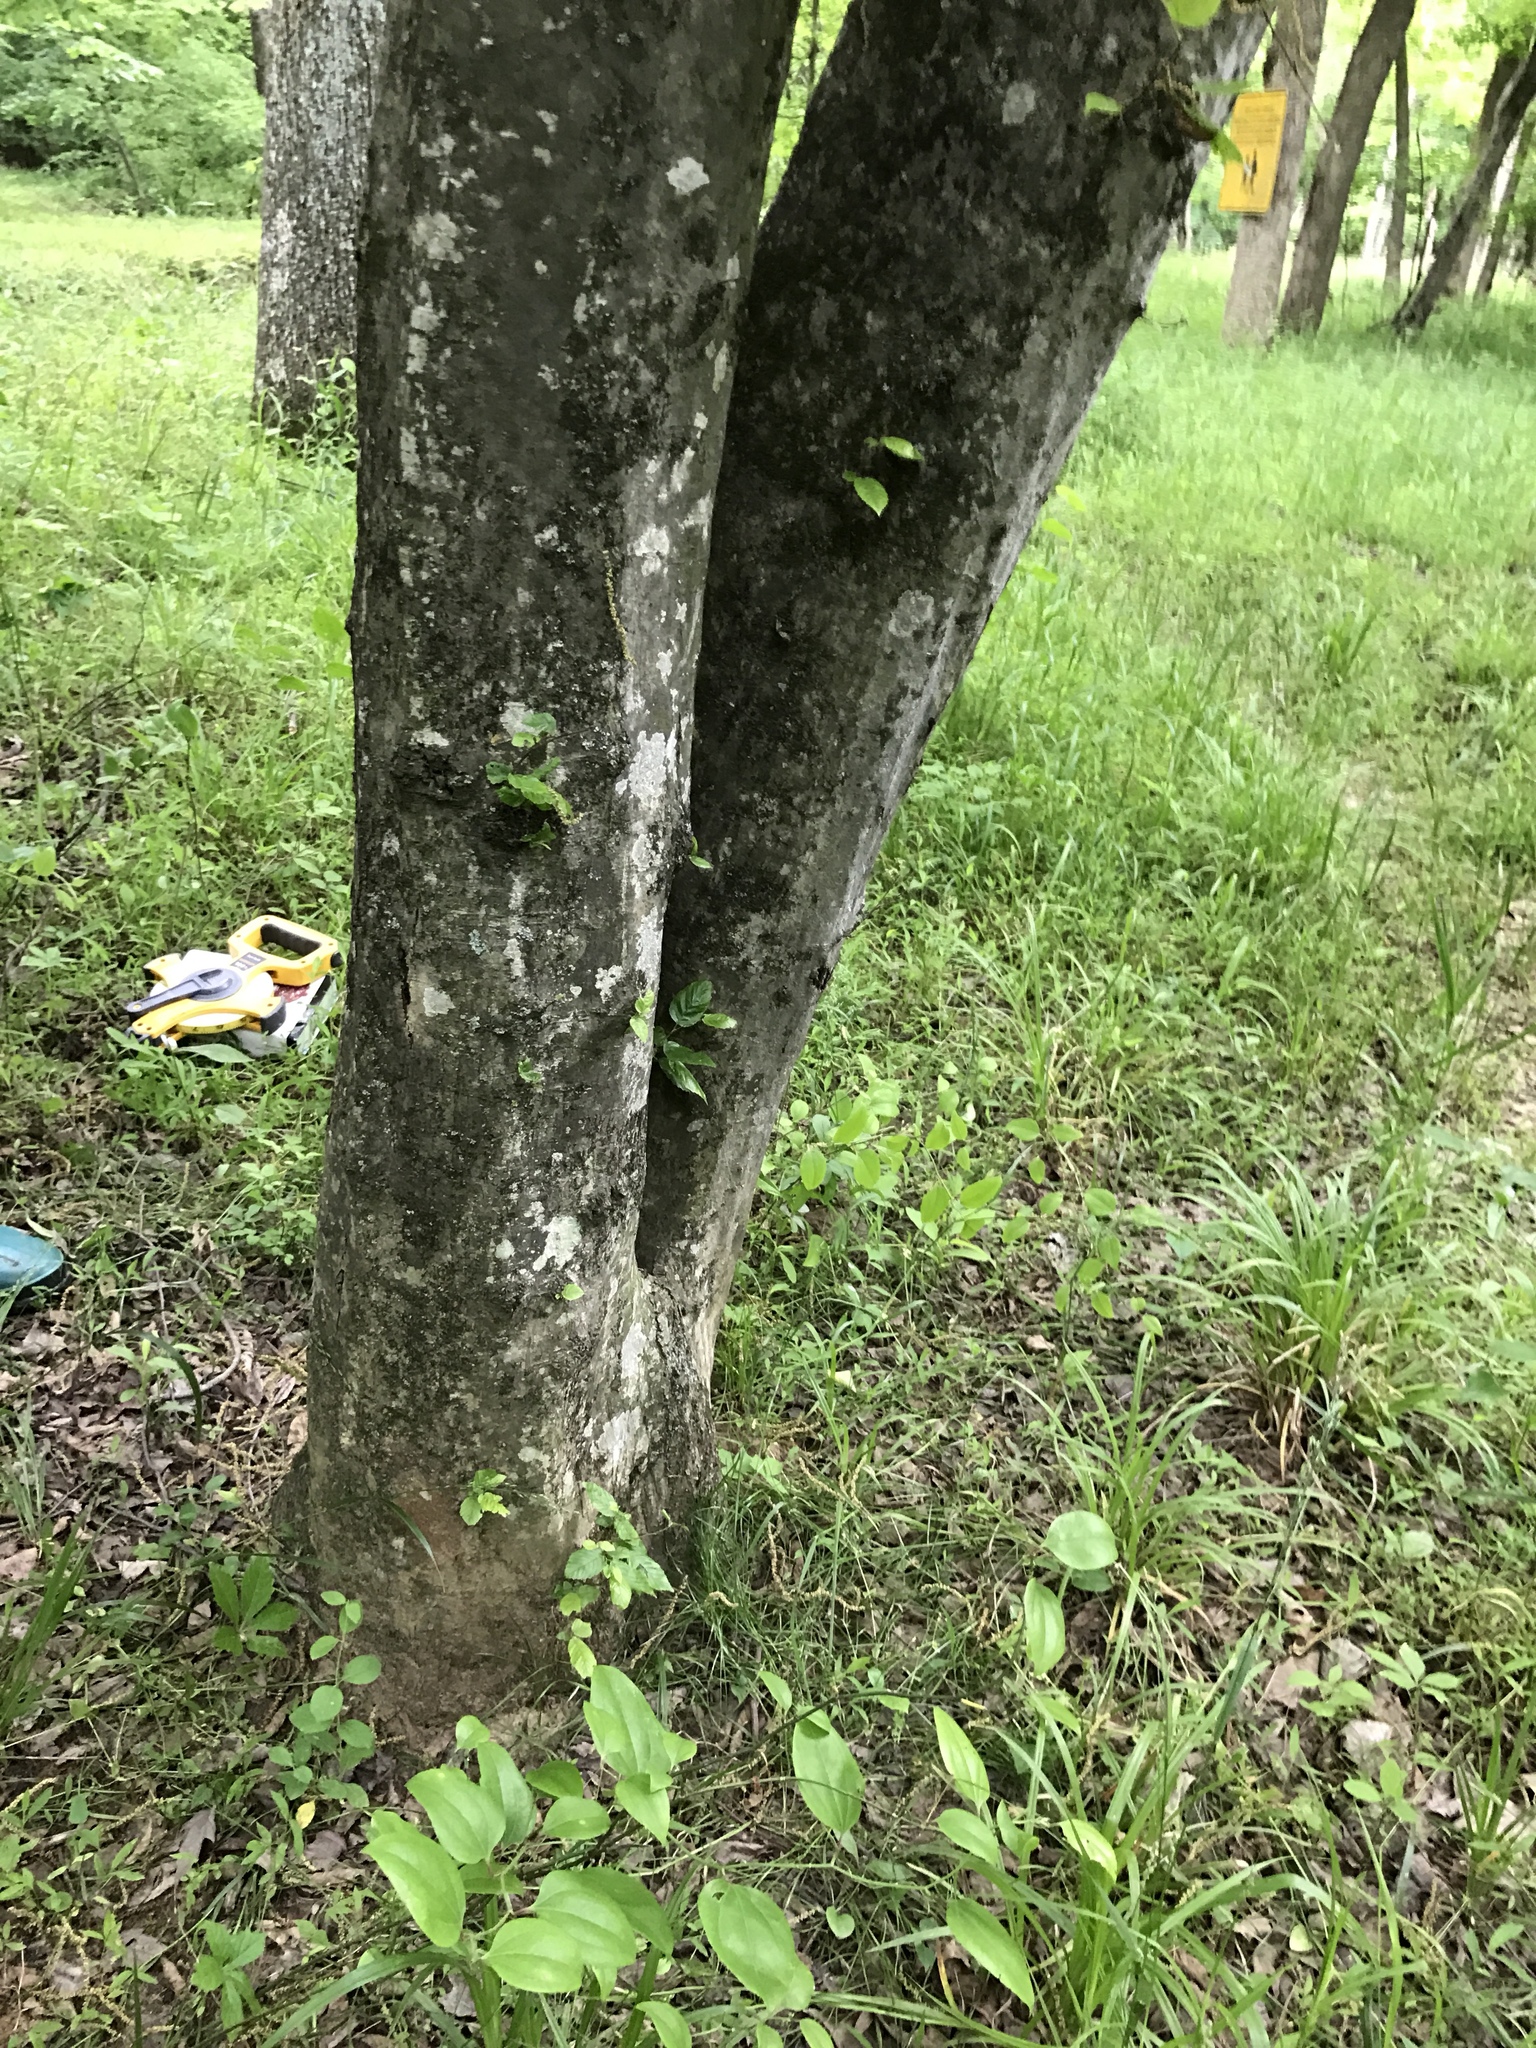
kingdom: Plantae
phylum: Tracheophyta
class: Magnoliopsida
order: Fagales
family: Betulaceae
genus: Carpinus
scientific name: Carpinus caroliniana
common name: American hornbeam
